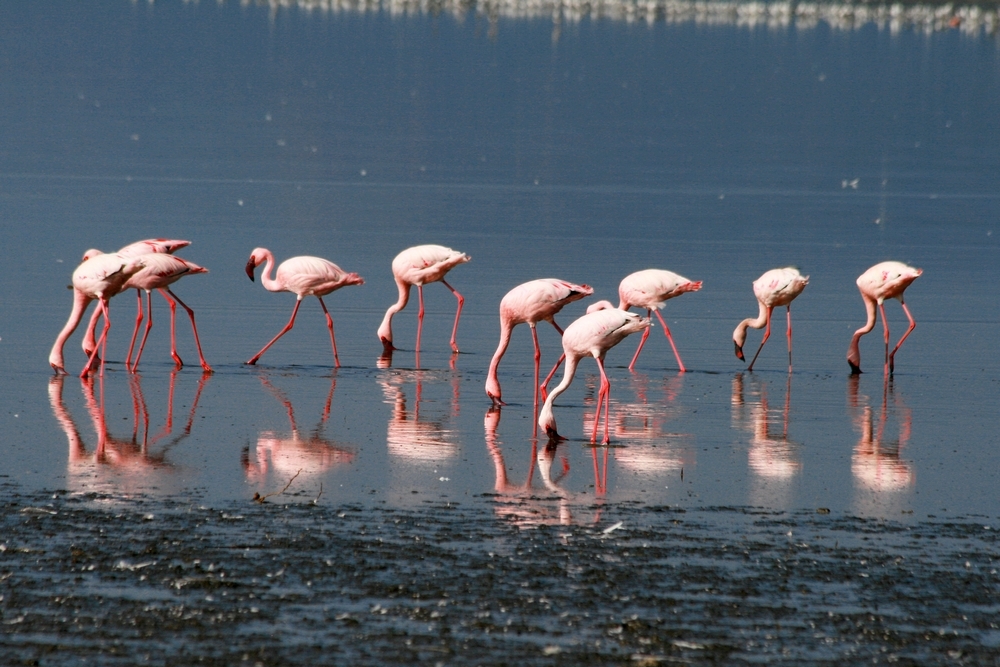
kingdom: Animalia
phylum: Chordata
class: Aves
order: Phoenicopteriformes
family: Phoenicopteridae
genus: Phoeniconaias
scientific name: Phoeniconaias minor
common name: Lesser flamingo
